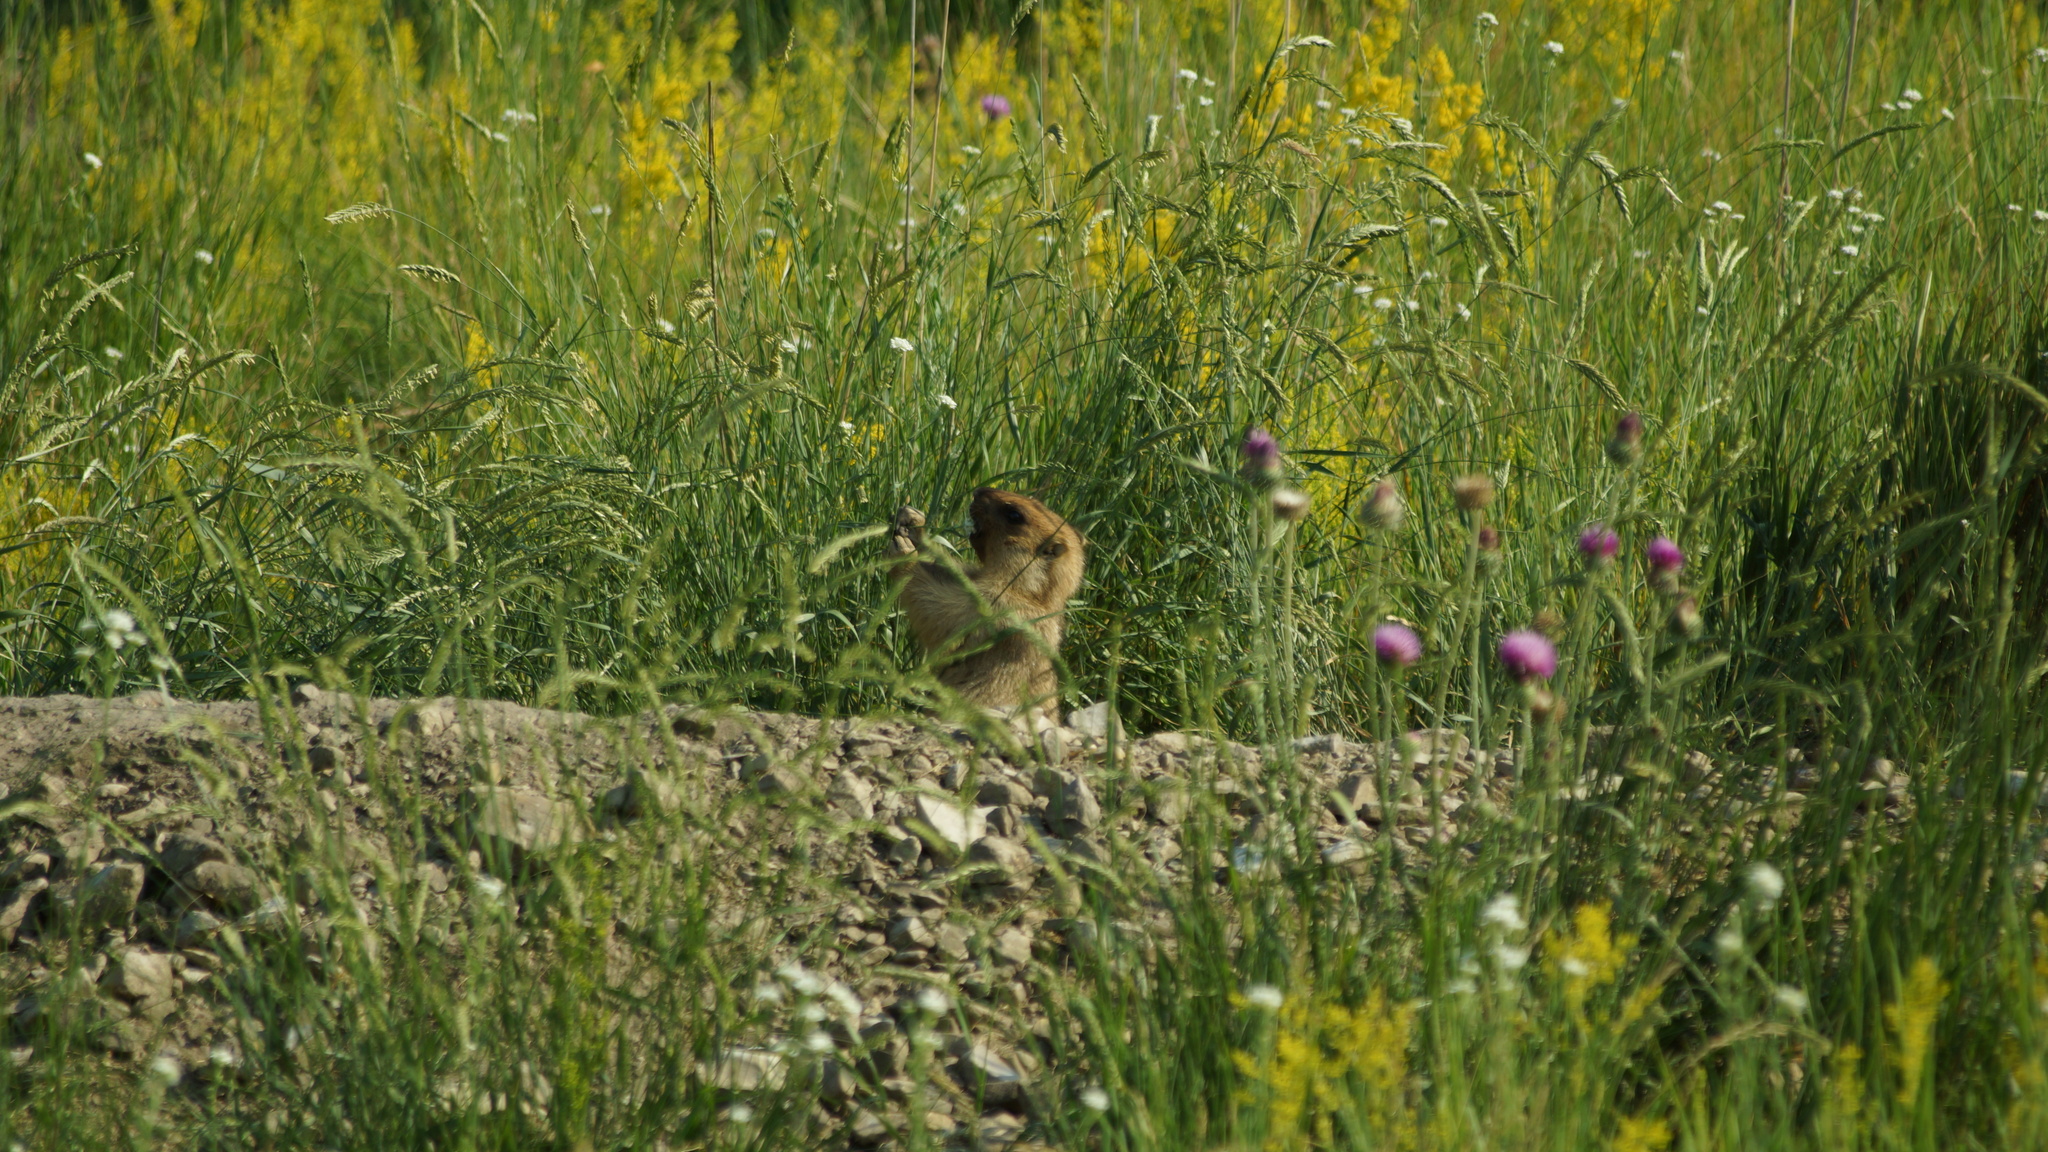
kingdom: Animalia
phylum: Chordata
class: Mammalia
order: Rodentia
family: Sciuridae
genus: Marmota
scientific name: Marmota bobak
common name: Bobak marmot
